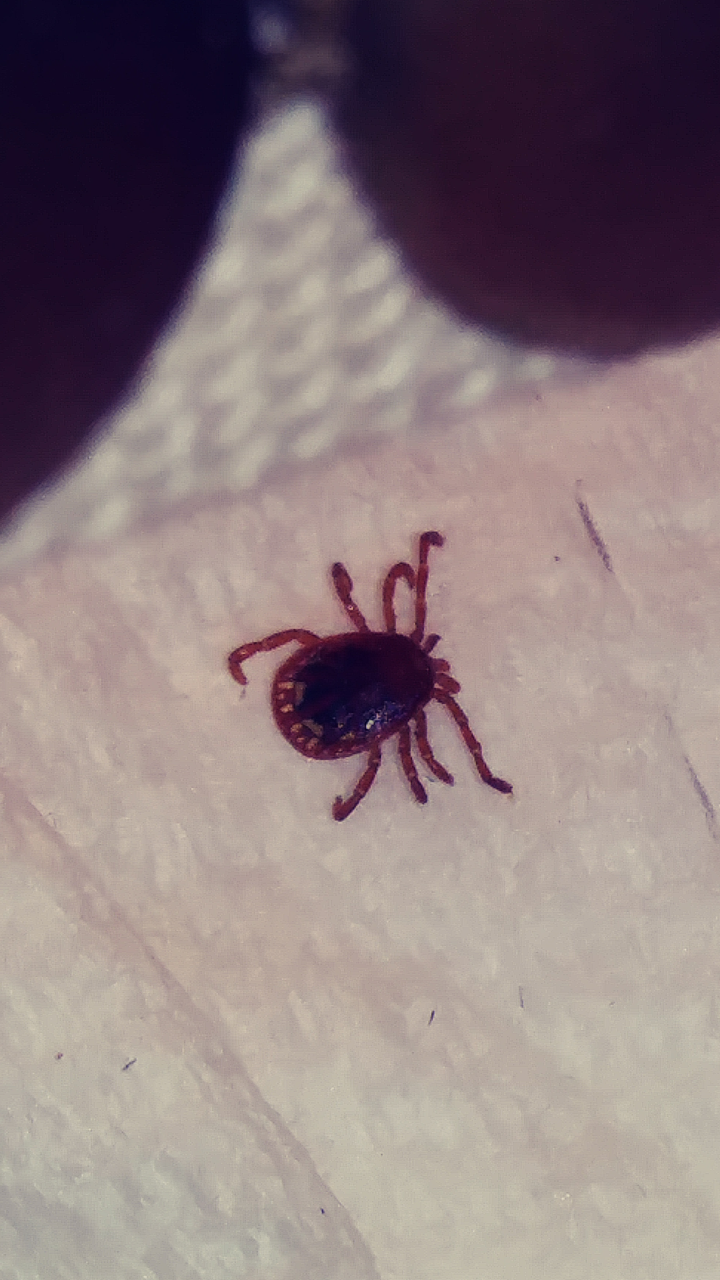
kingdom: Animalia
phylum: Arthropoda
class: Arachnida
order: Ixodida
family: Ixodidae
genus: Amblyomma
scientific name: Amblyomma americanum
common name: Lone star tick
